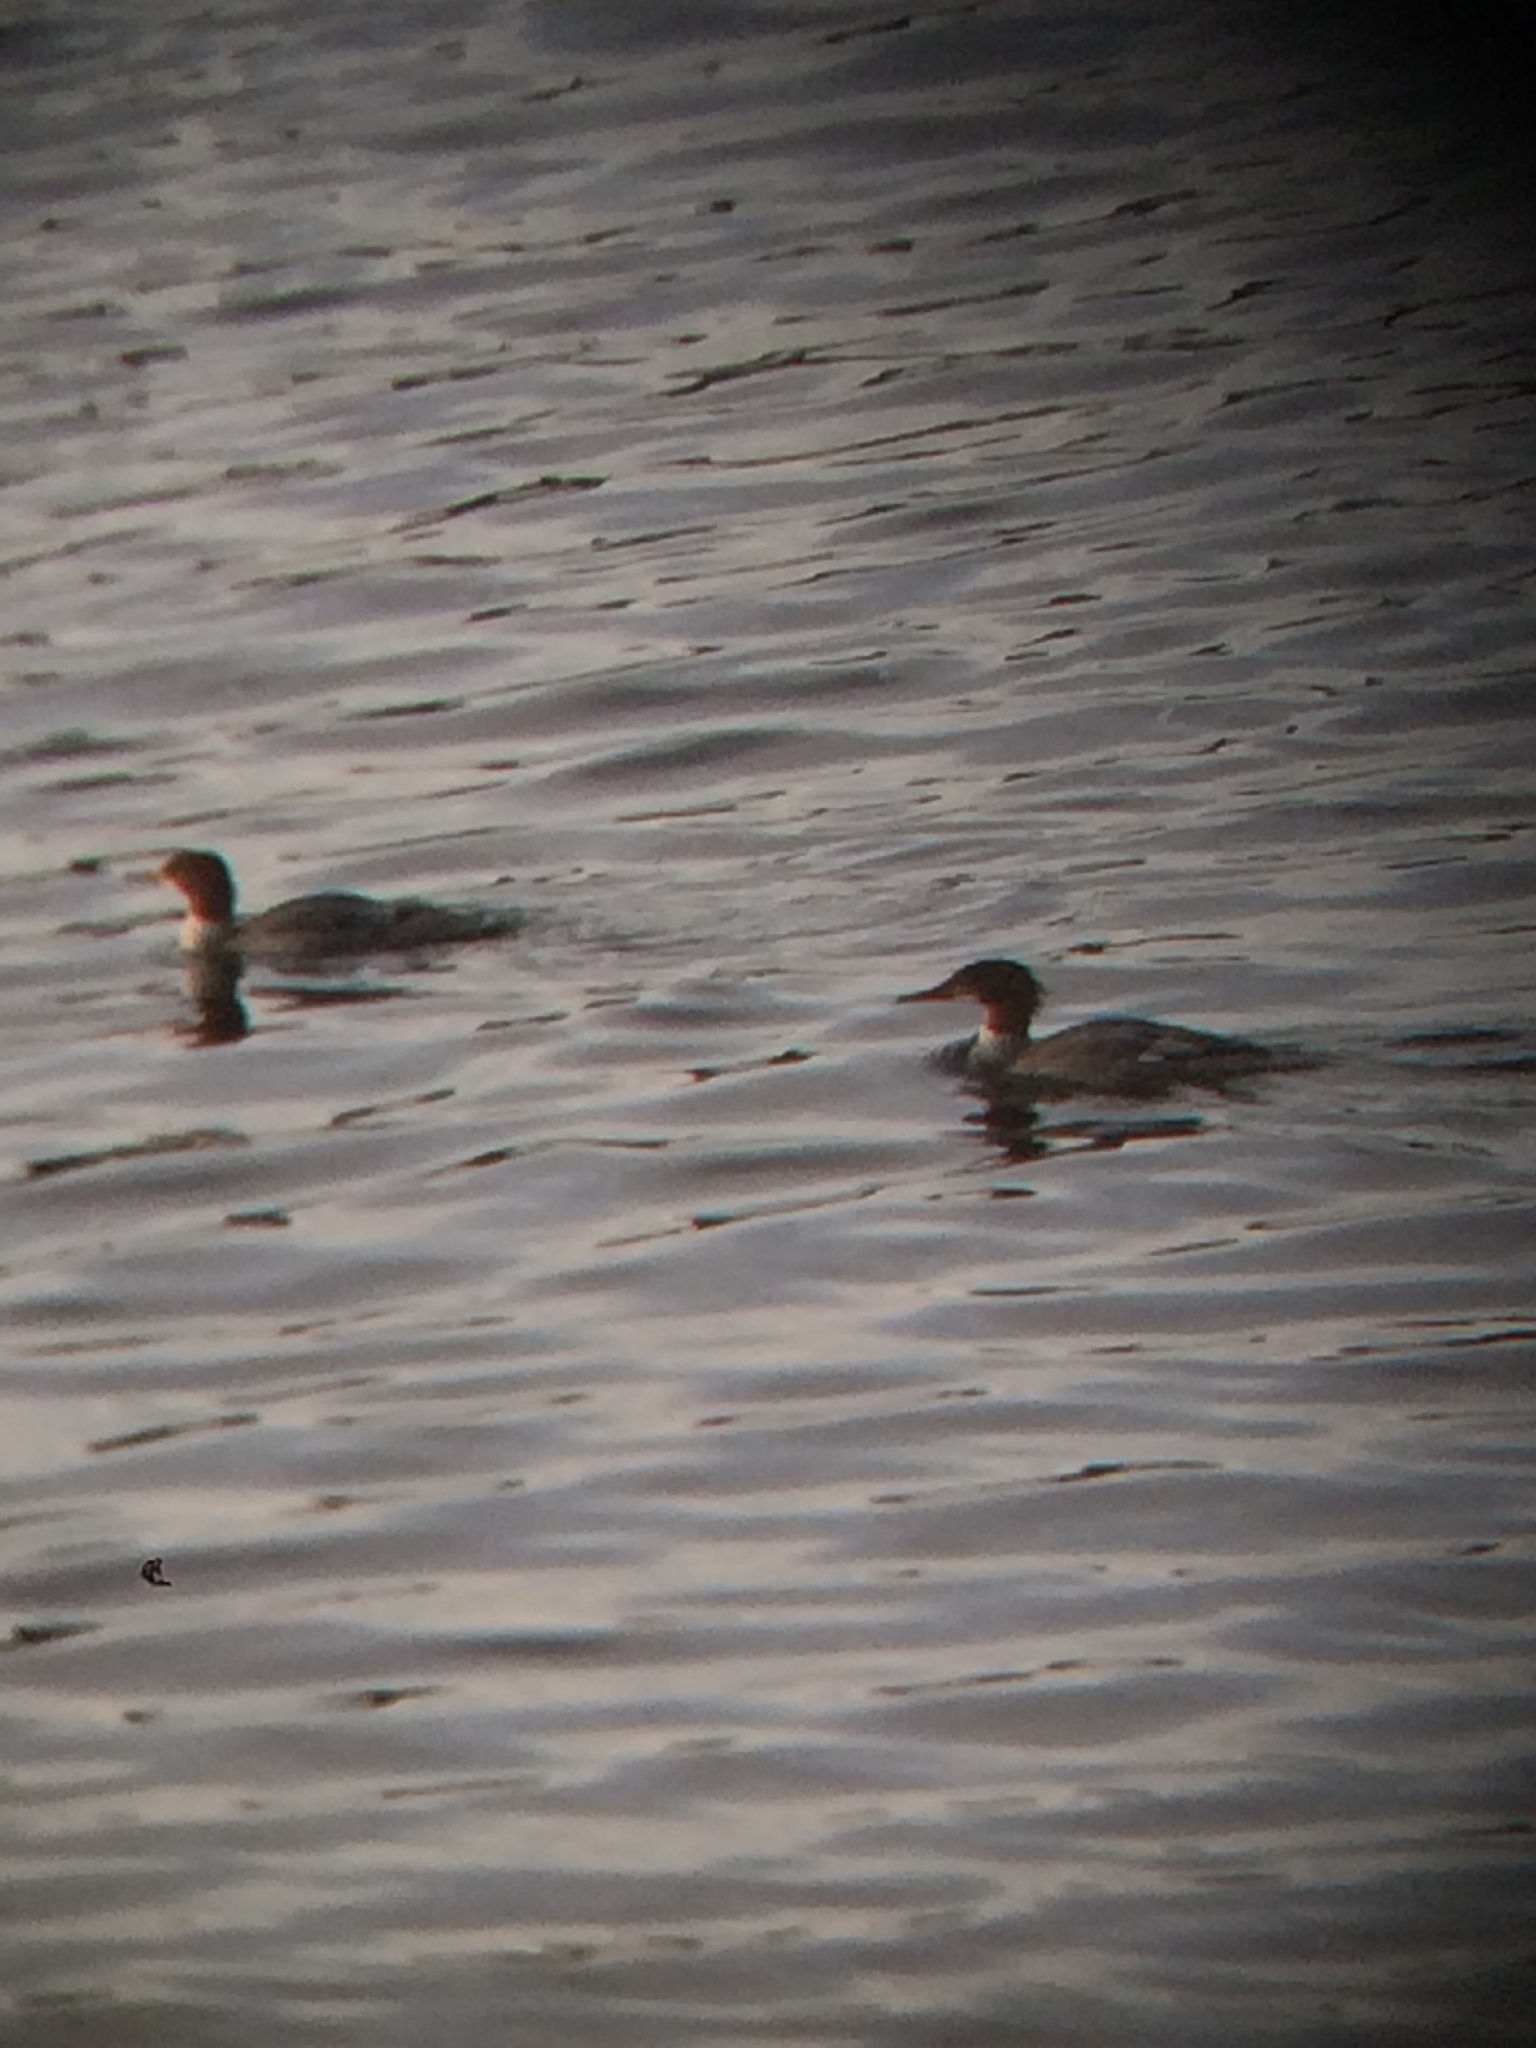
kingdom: Animalia
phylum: Chordata
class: Aves
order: Anseriformes
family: Anatidae
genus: Mergus
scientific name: Mergus merganser
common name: Common merganser
